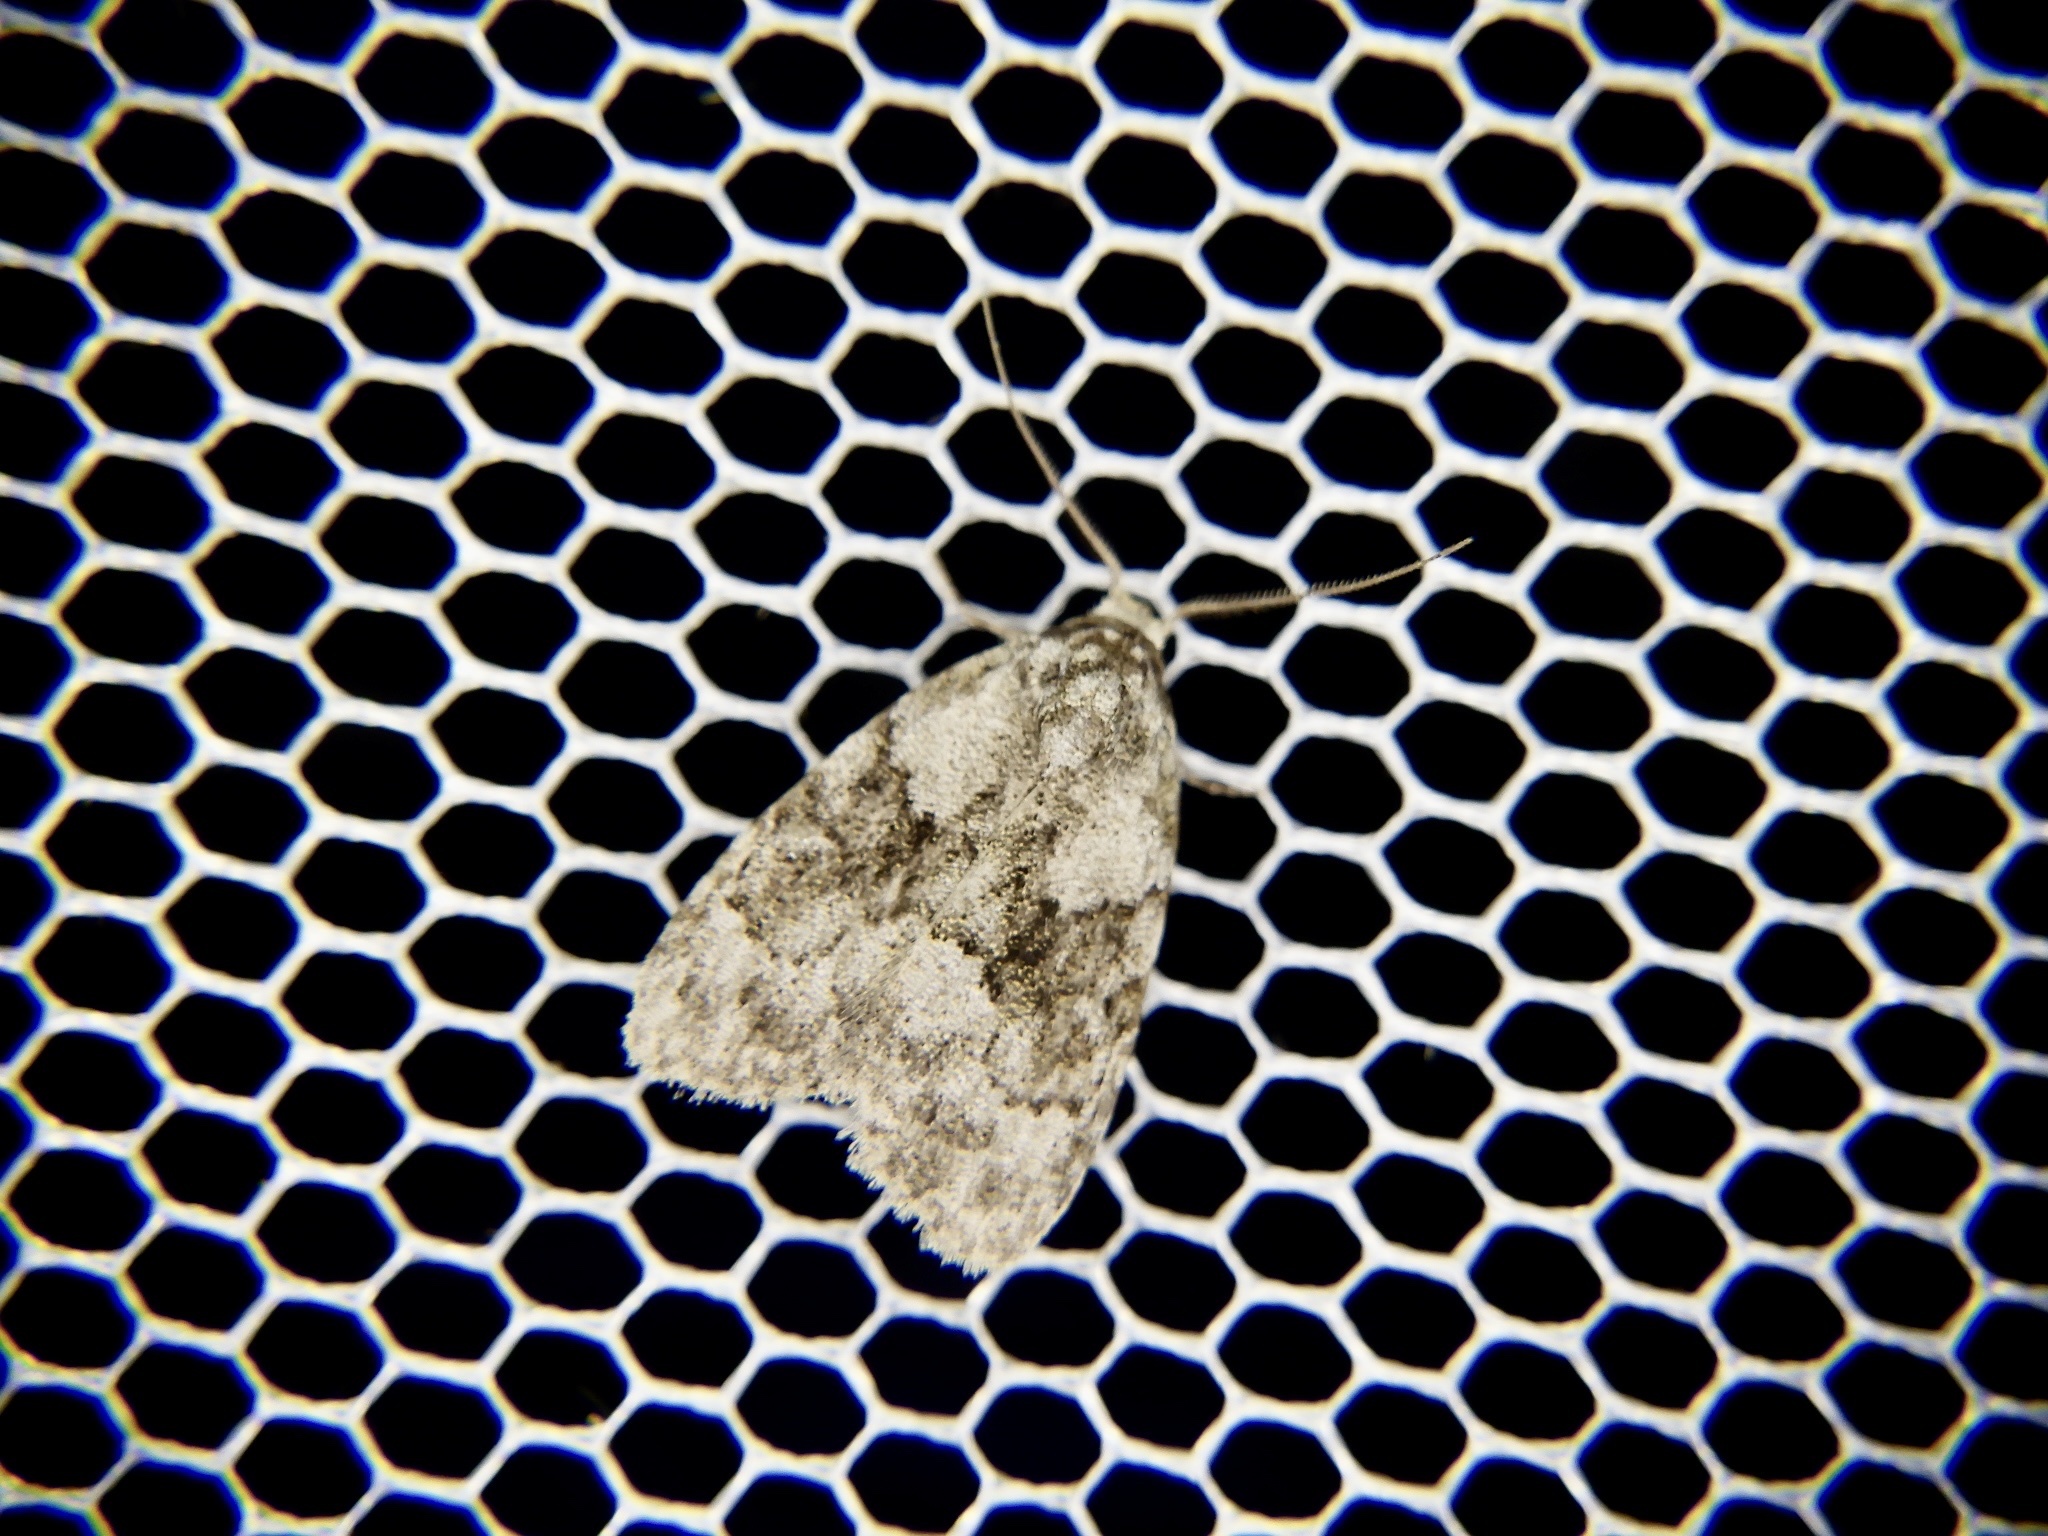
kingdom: Animalia
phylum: Arthropoda
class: Insecta
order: Lepidoptera
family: Nolidae
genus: Meganola
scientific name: Meganola fumosa
